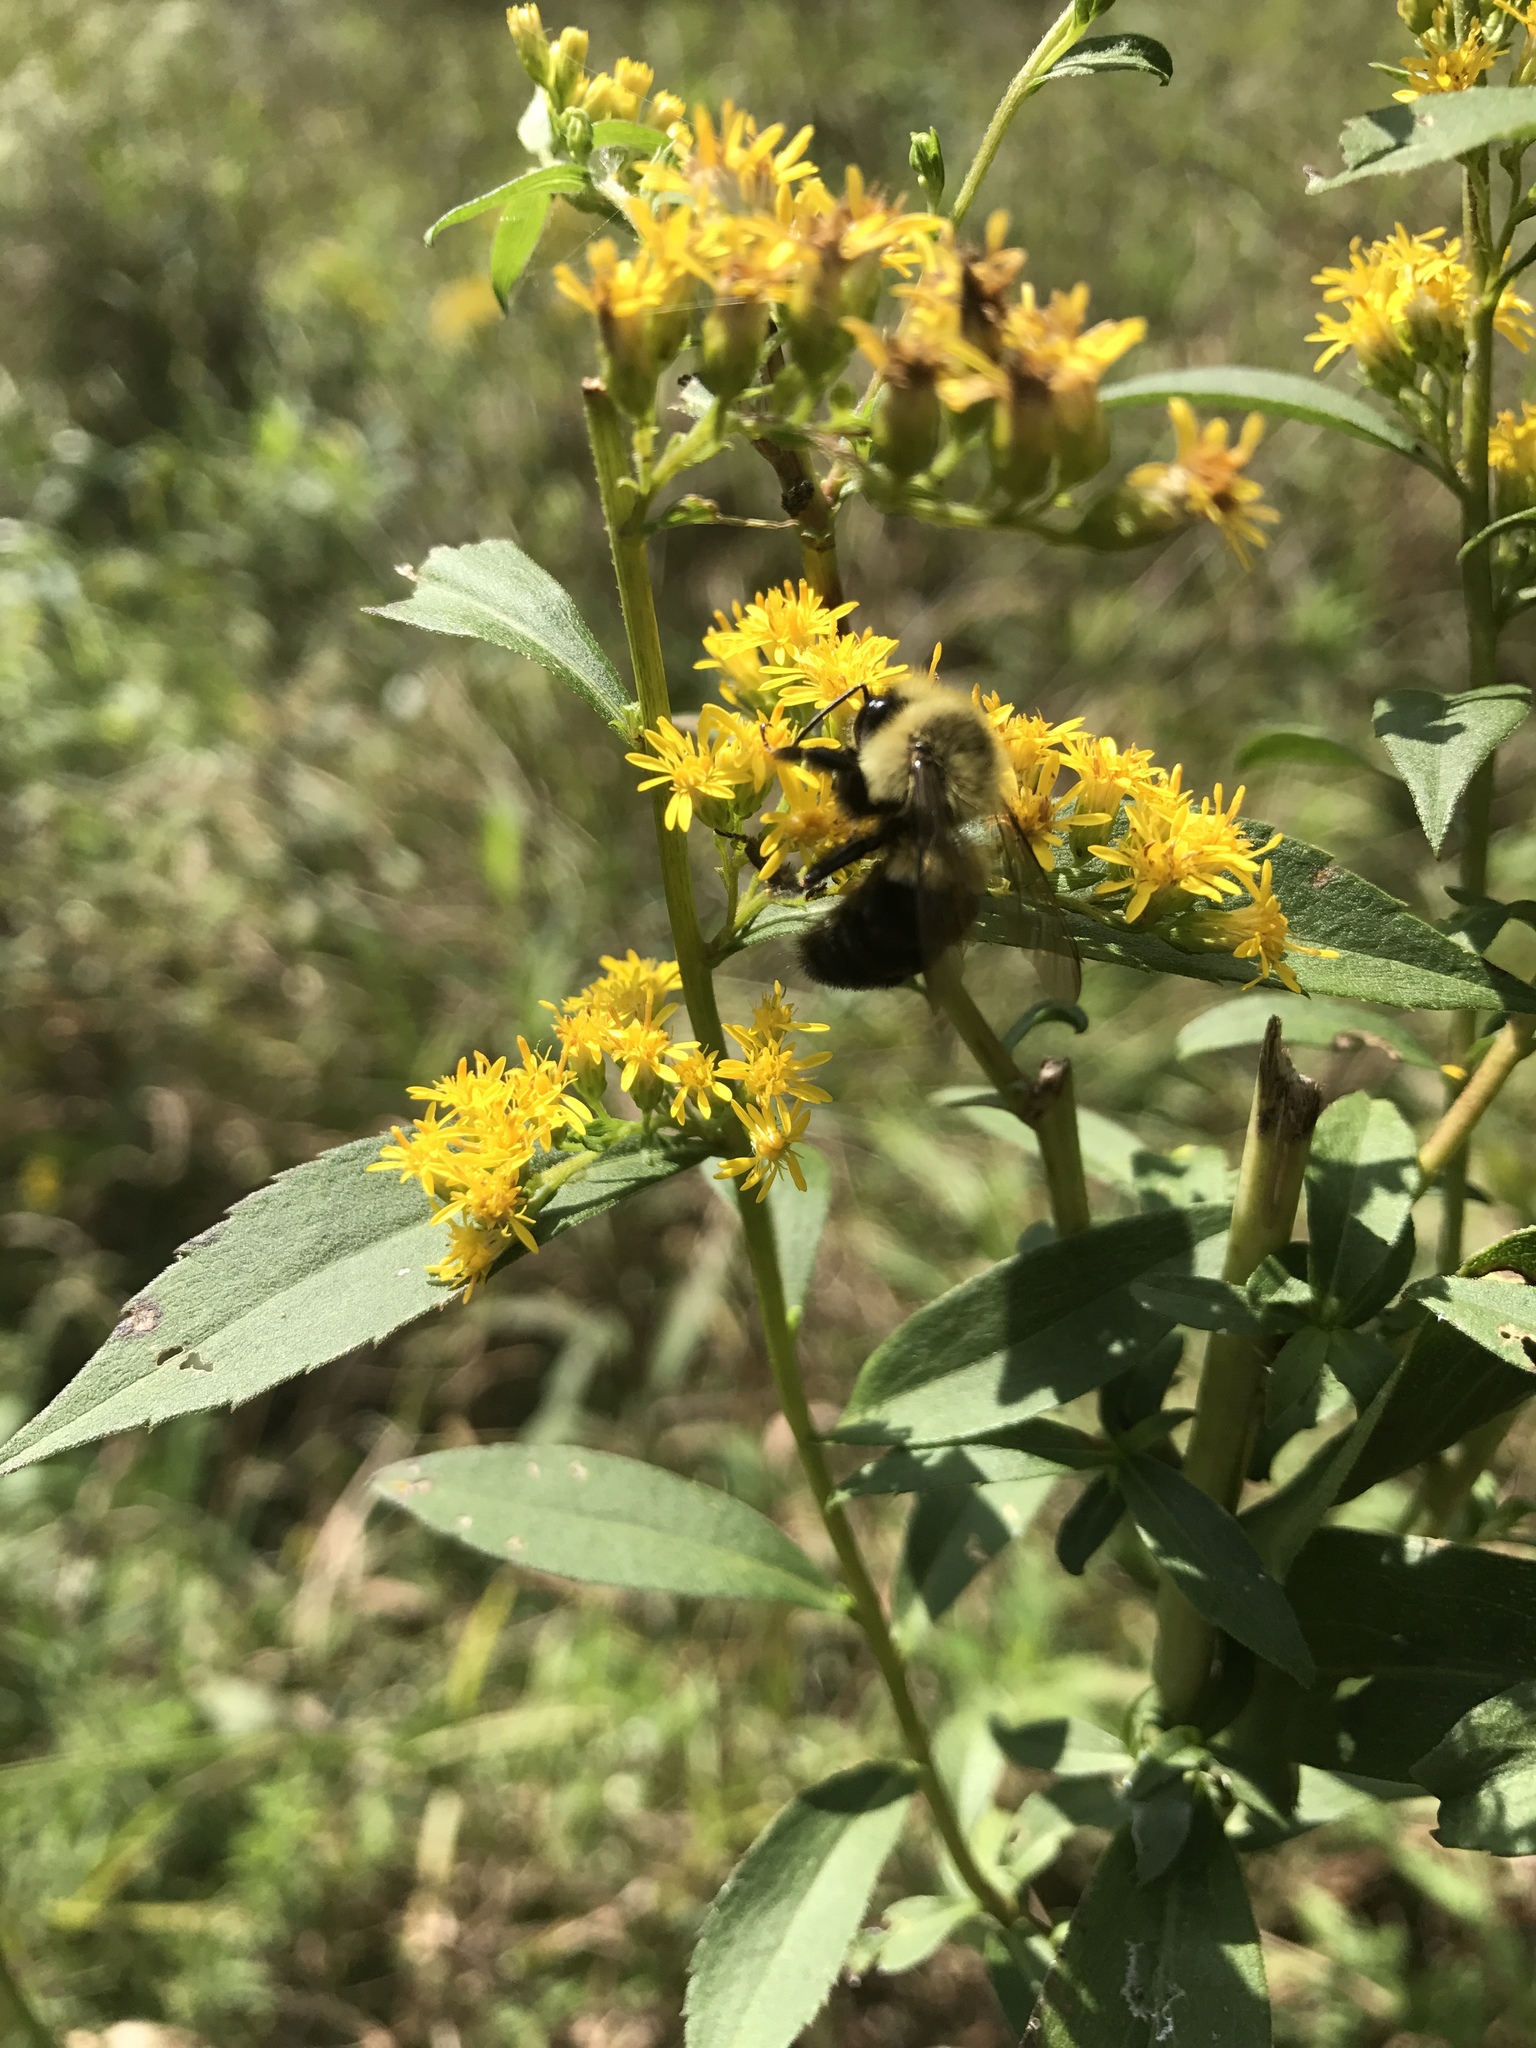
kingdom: Animalia
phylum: Arthropoda
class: Insecta
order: Hymenoptera
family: Apidae
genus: Bombus
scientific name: Bombus impatiens
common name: Common eastern bumble bee
